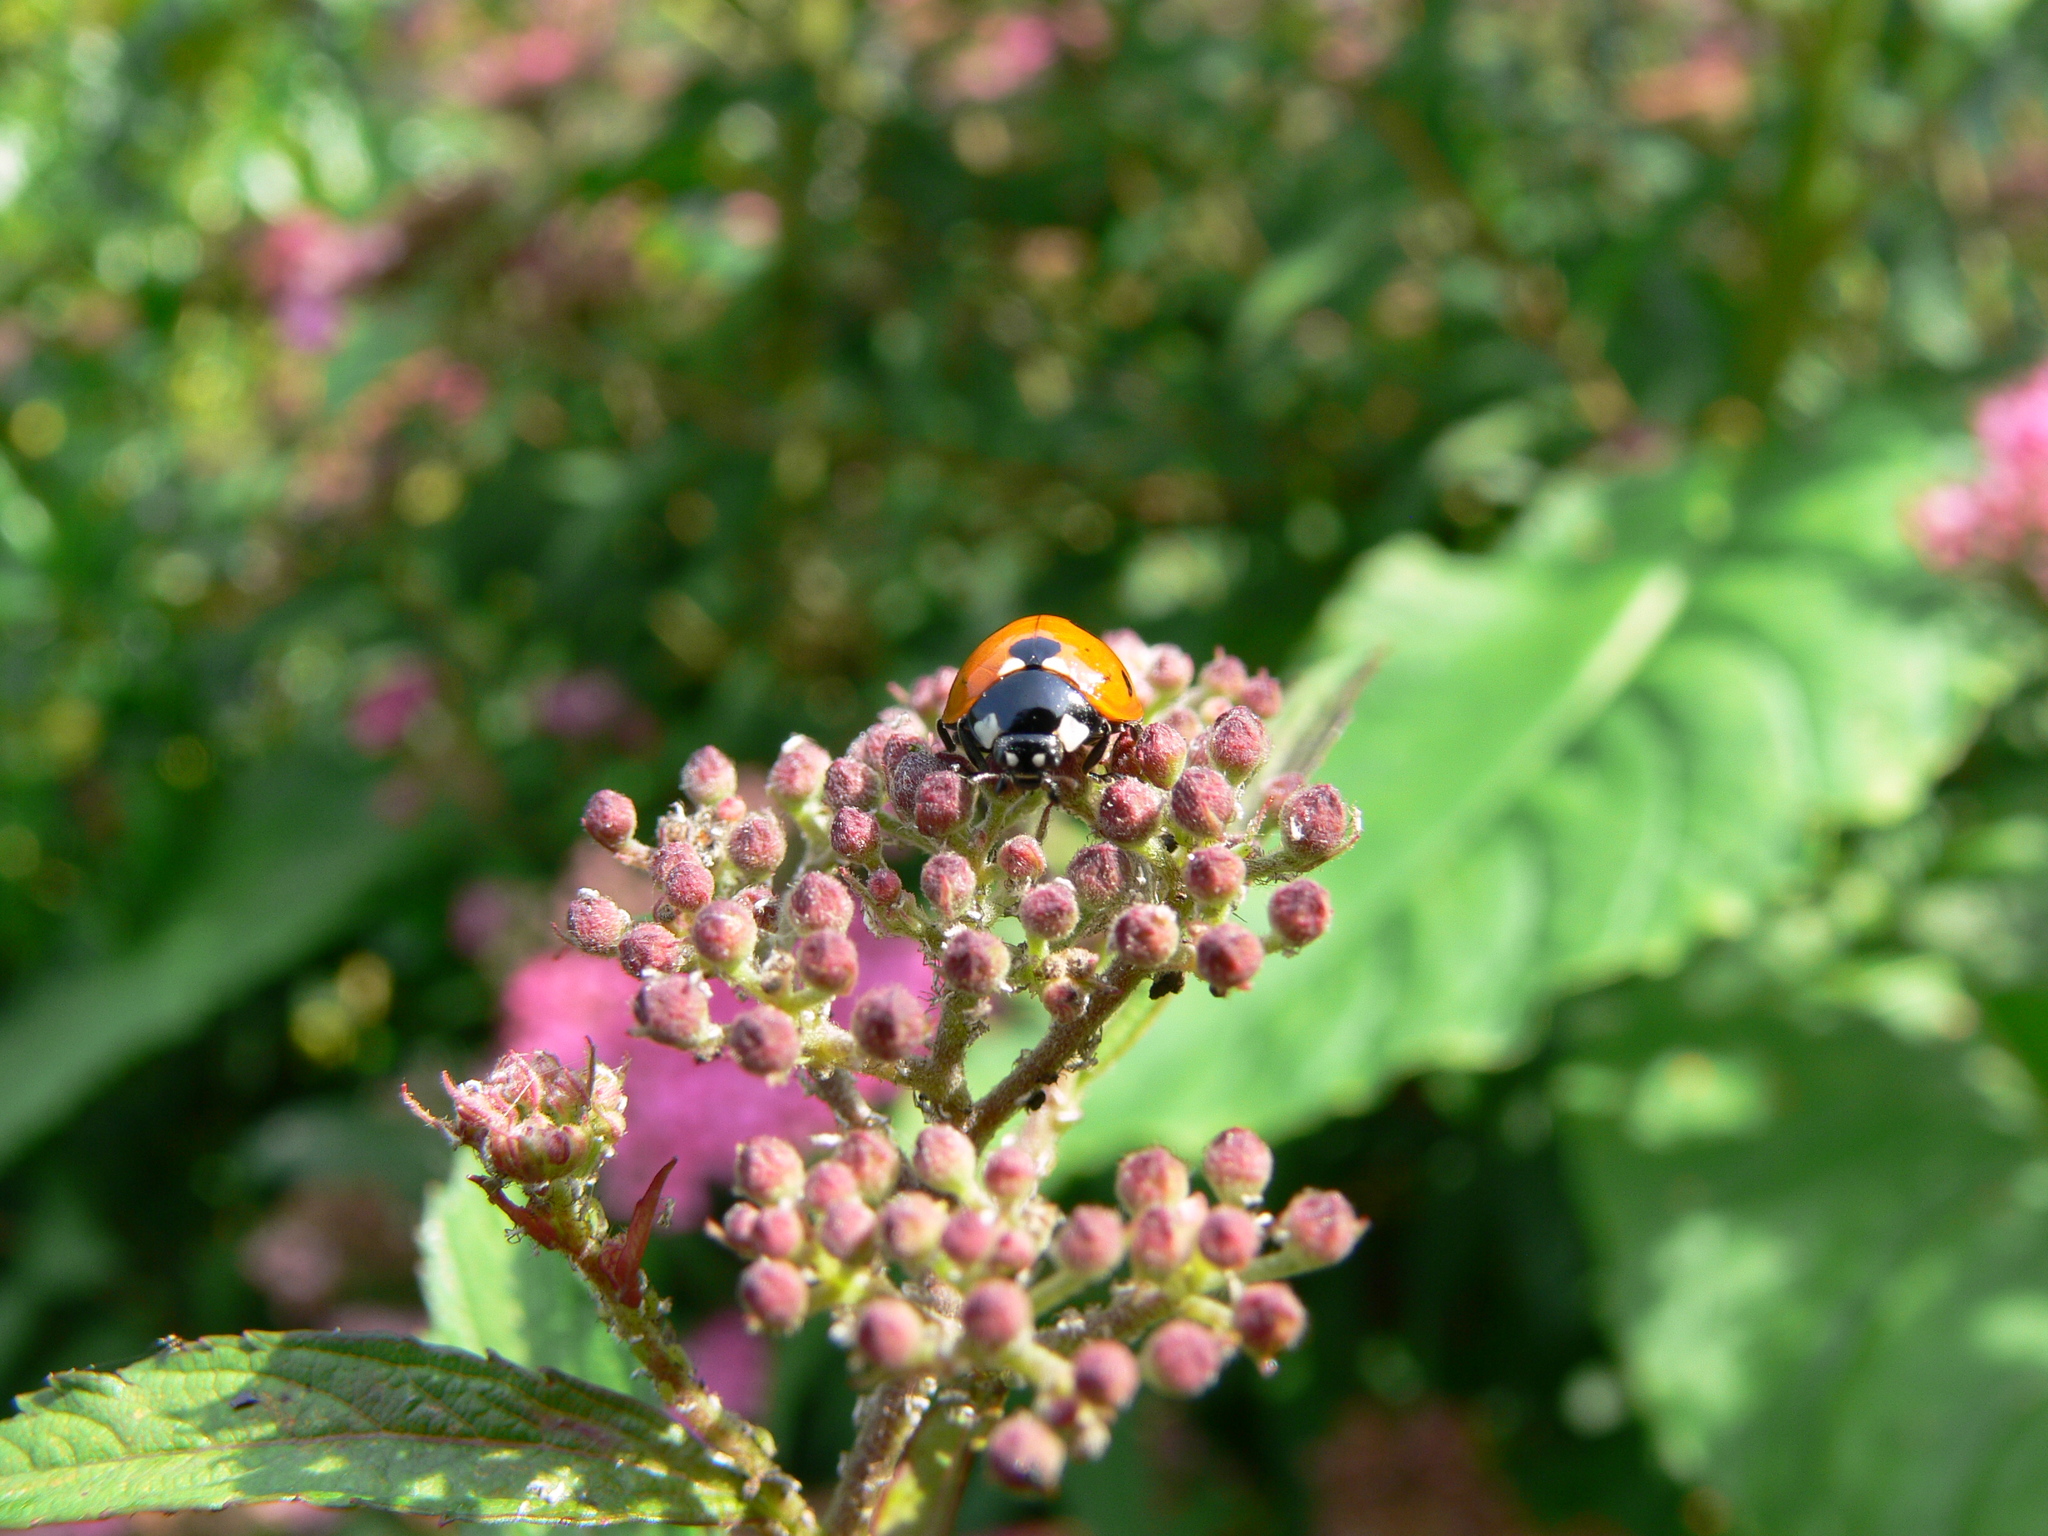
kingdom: Animalia
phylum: Arthropoda
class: Insecta
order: Coleoptera
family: Coccinellidae
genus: Coccinella
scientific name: Coccinella septempunctata
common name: Sevenspotted lady beetle
